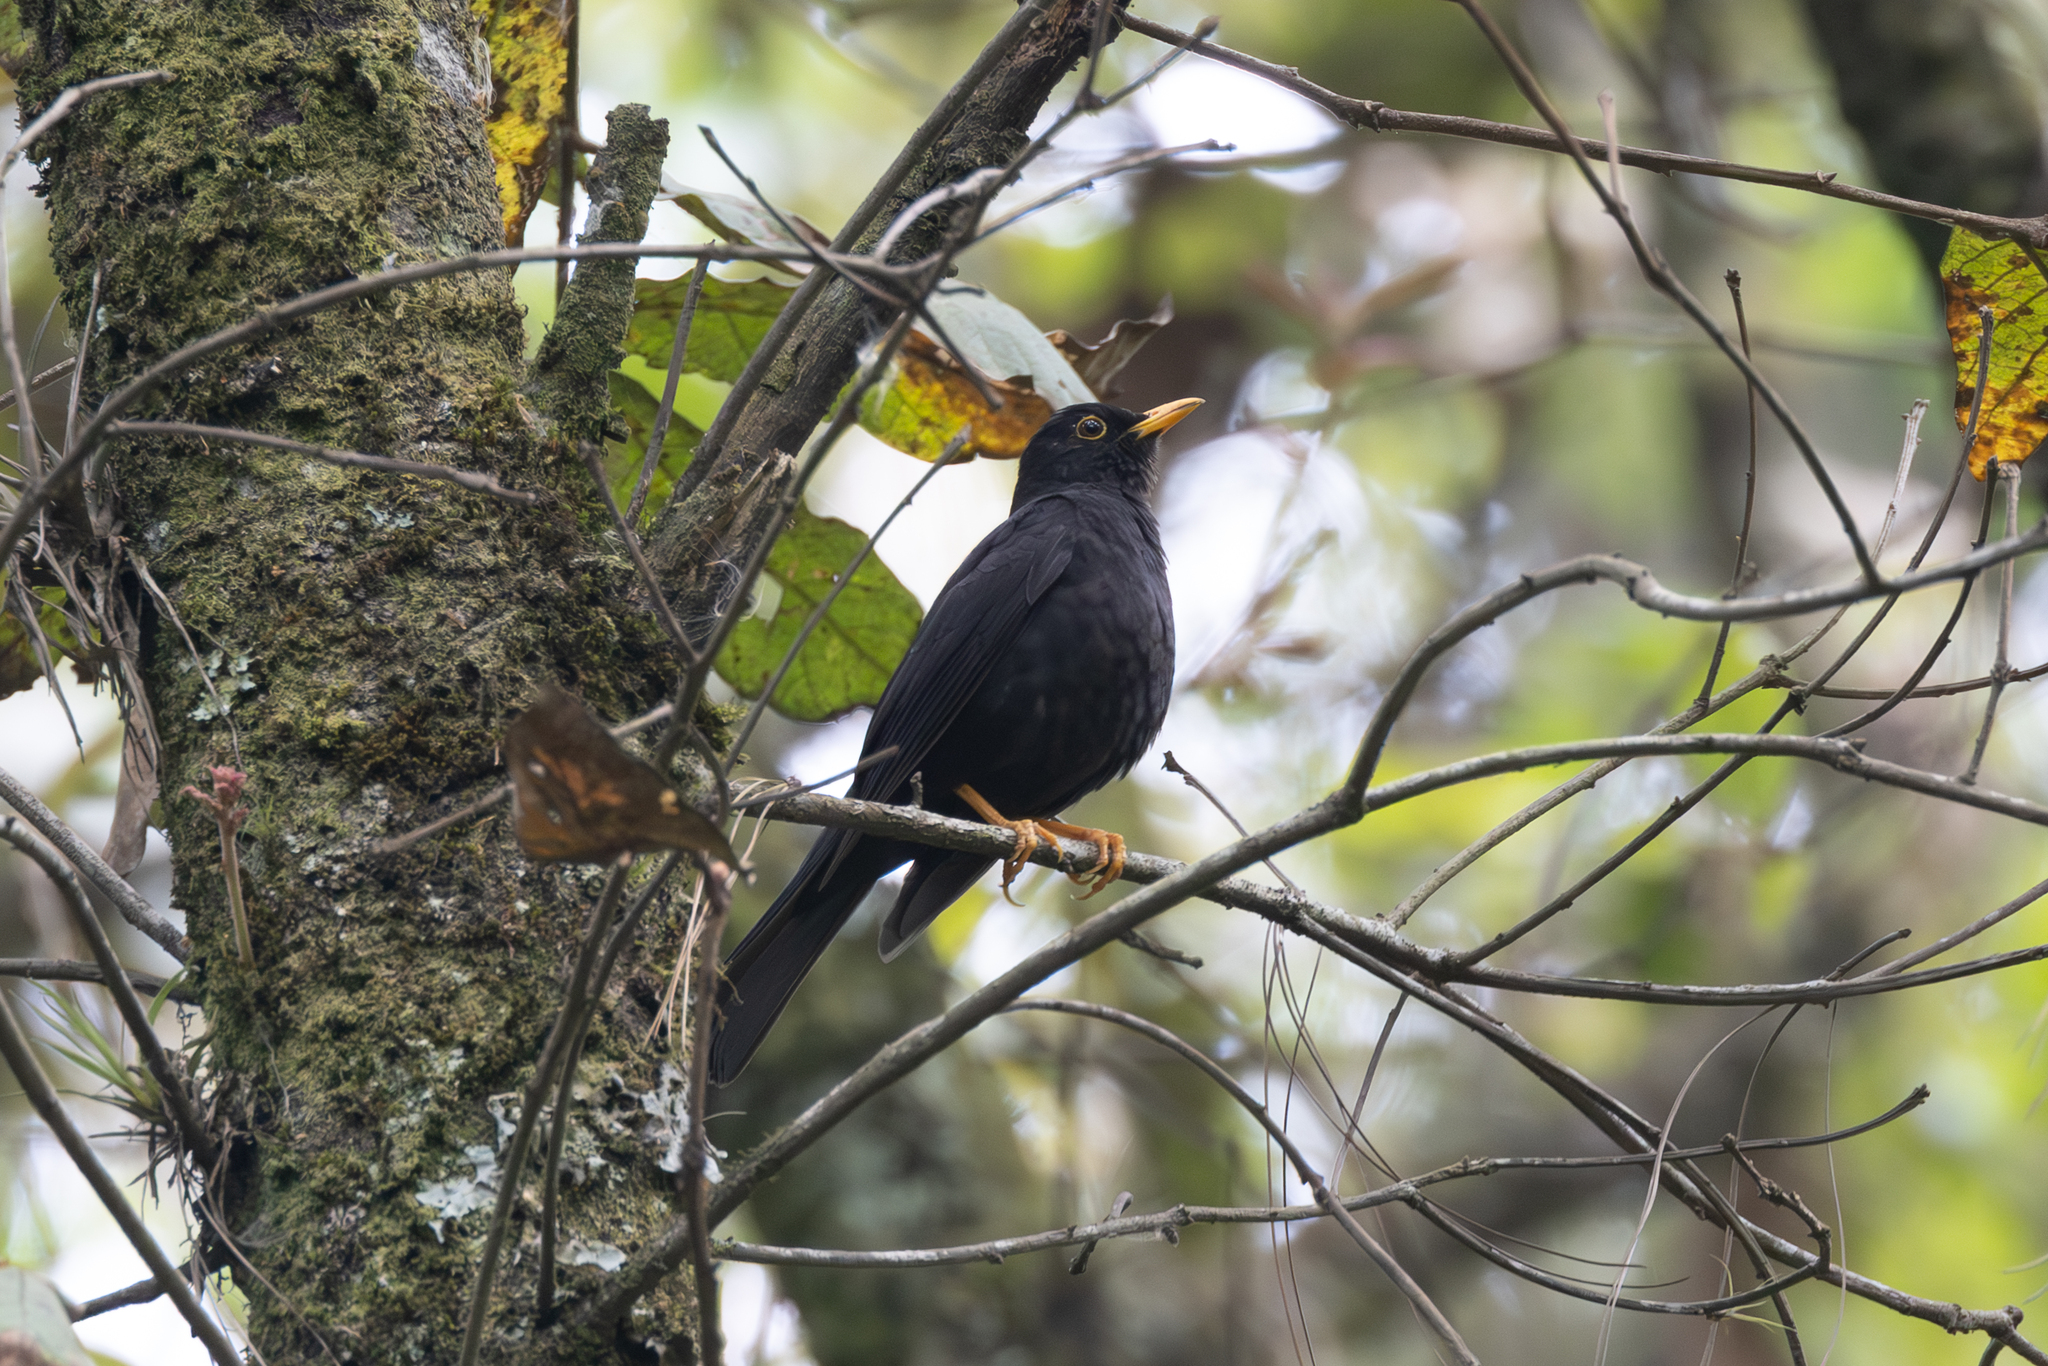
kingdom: Animalia
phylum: Chordata
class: Aves
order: Passeriformes
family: Turdidae
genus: Turdus
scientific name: Turdus infuscatus
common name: Black thrush
